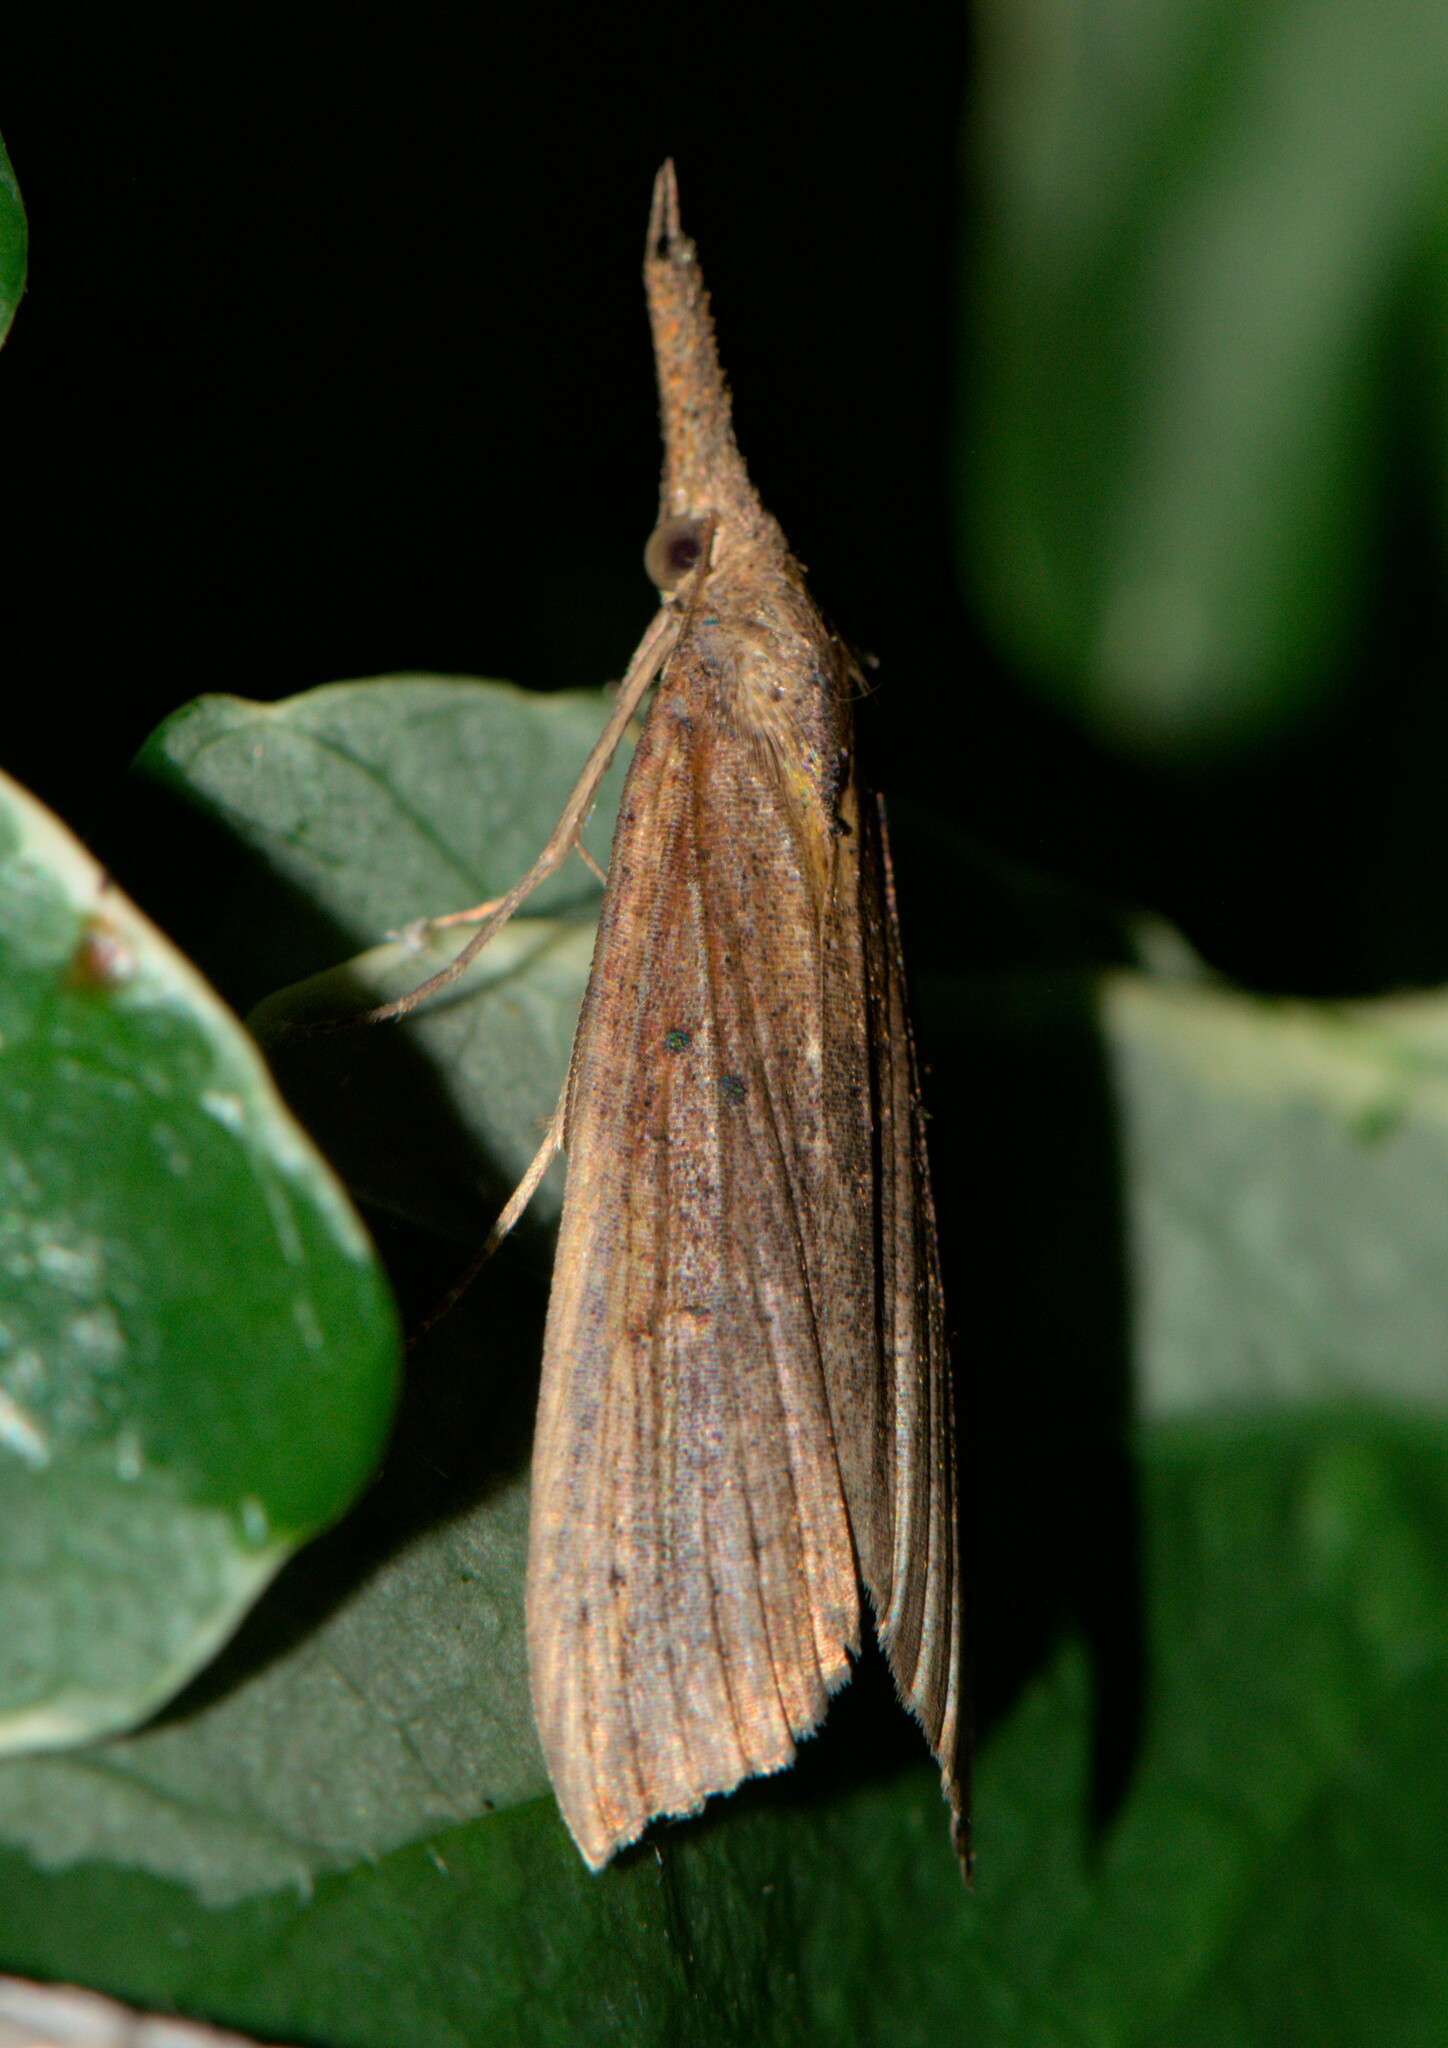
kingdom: Animalia
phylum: Arthropoda
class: Insecta
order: Lepidoptera
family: Erebidae
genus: Hypena
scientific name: Hypena longipennis
